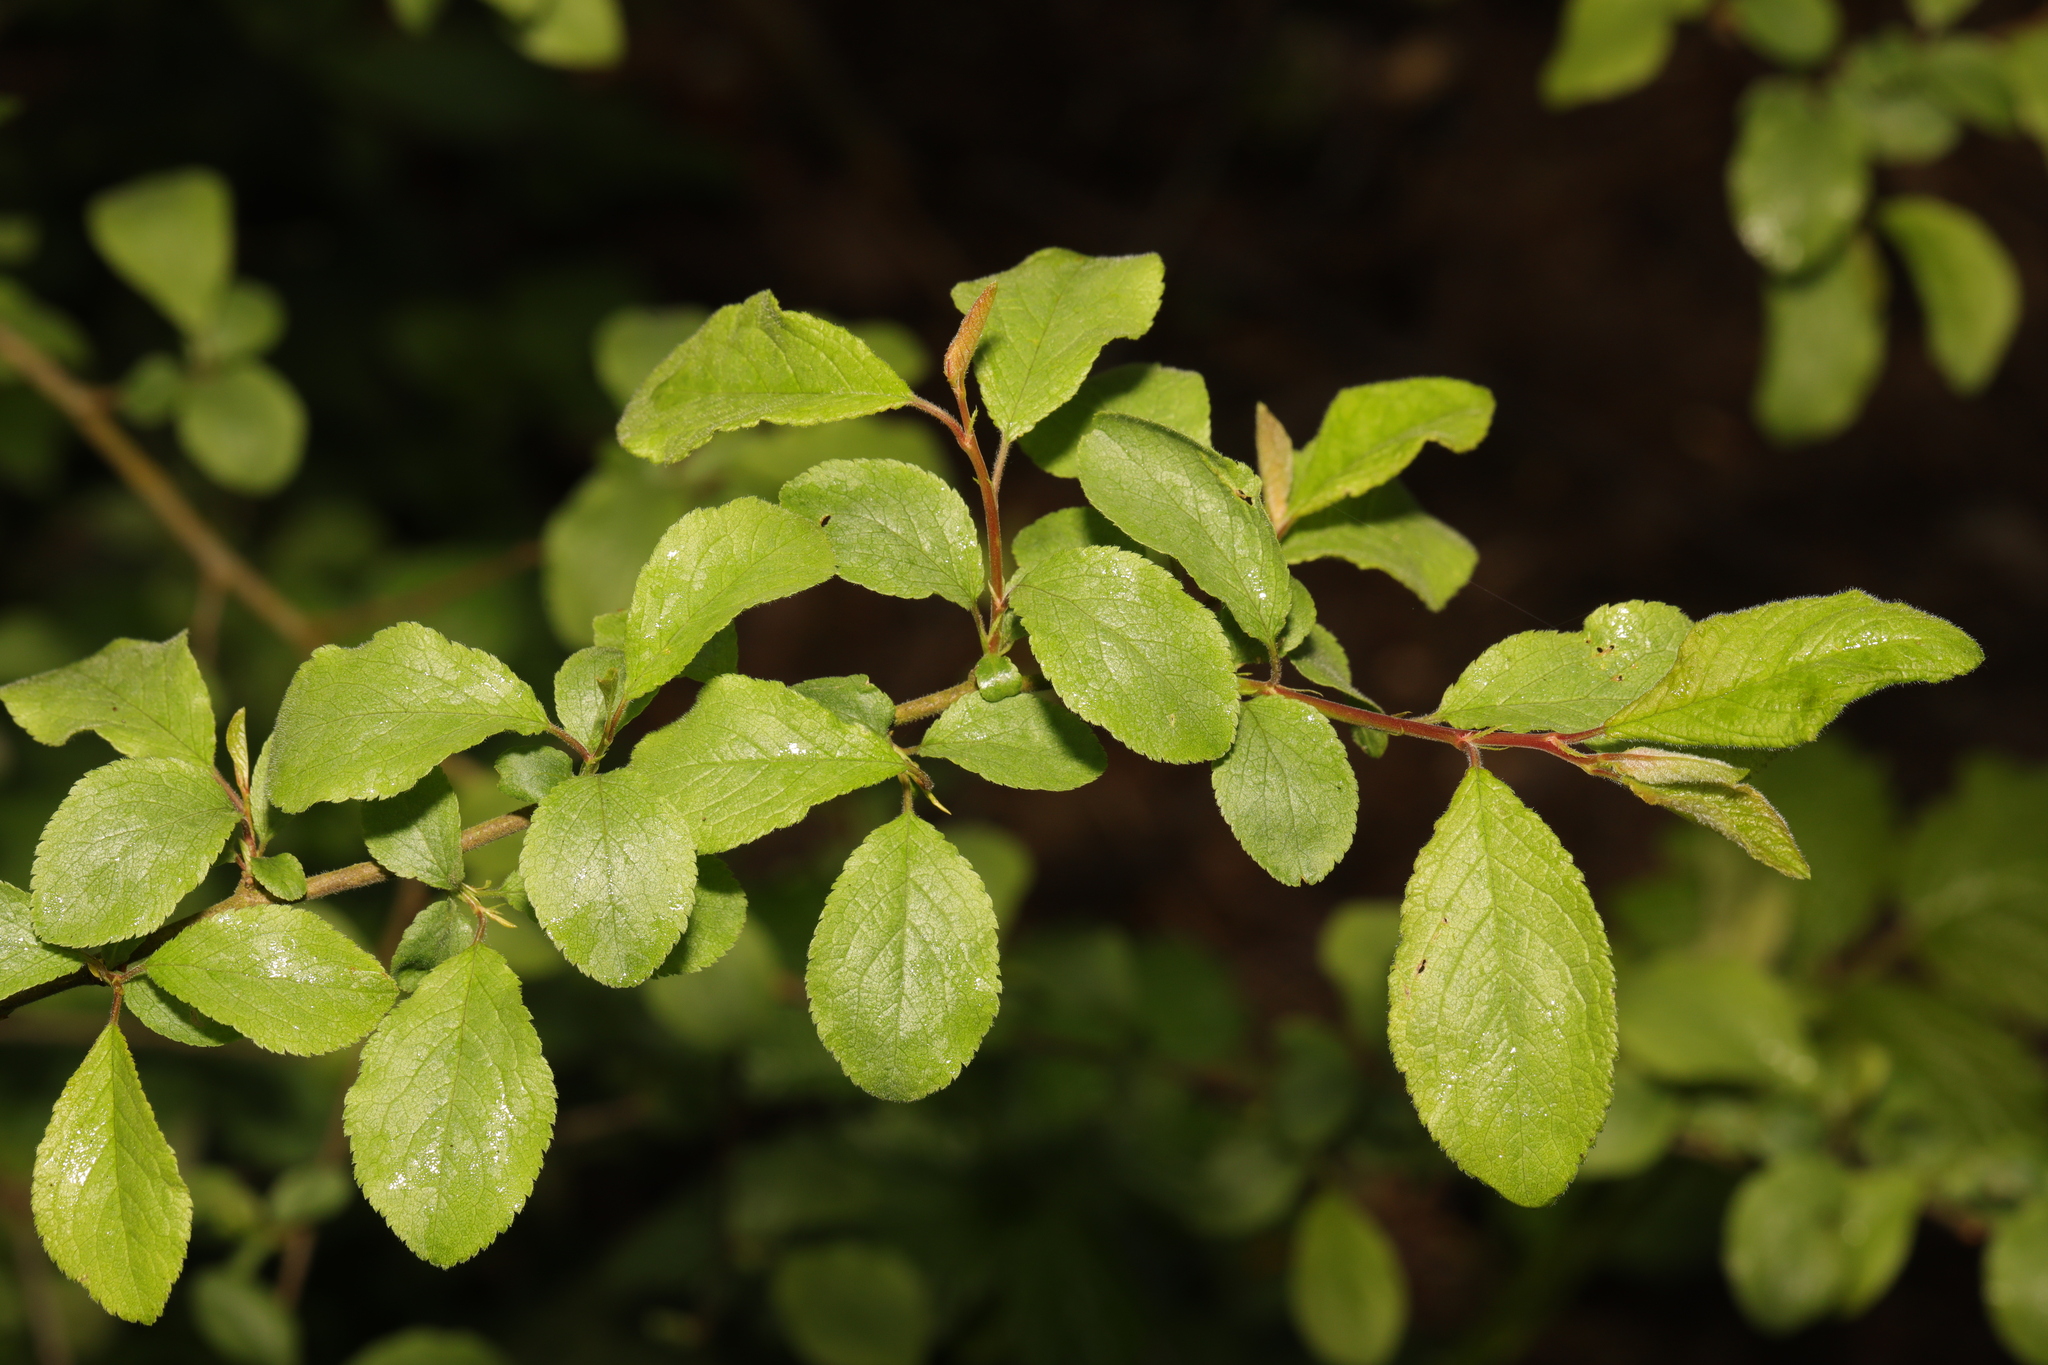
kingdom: Plantae
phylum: Tracheophyta
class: Magnoliopsida
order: Rosales
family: Rosaceae
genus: Prunus
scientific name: Prunus spinosa
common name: Blackthorn
